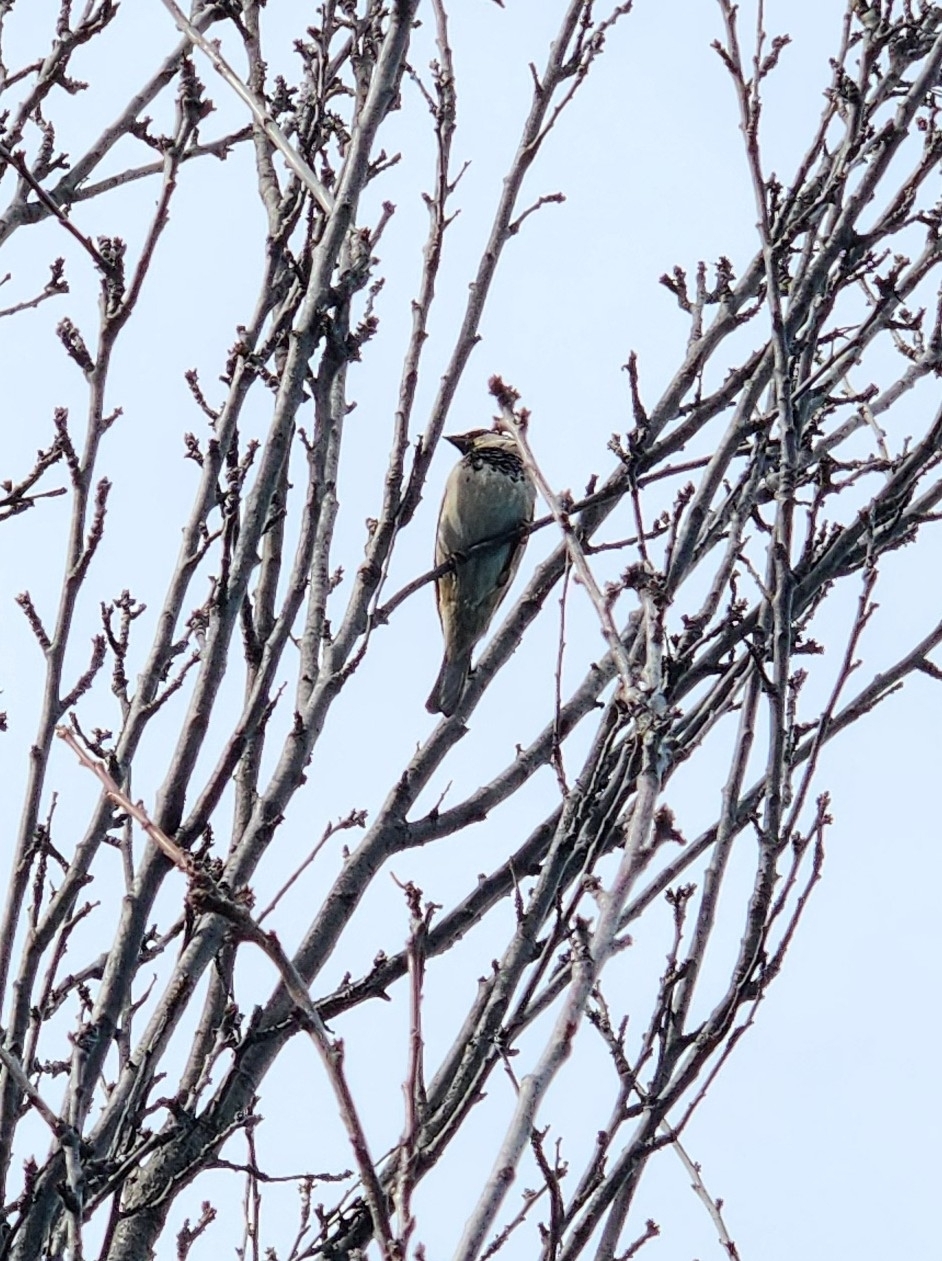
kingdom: Animalia
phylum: Chordata
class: Aves
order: Passeriformes
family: Passeridae
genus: Passer
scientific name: Passer domesticus
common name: House sparrow
